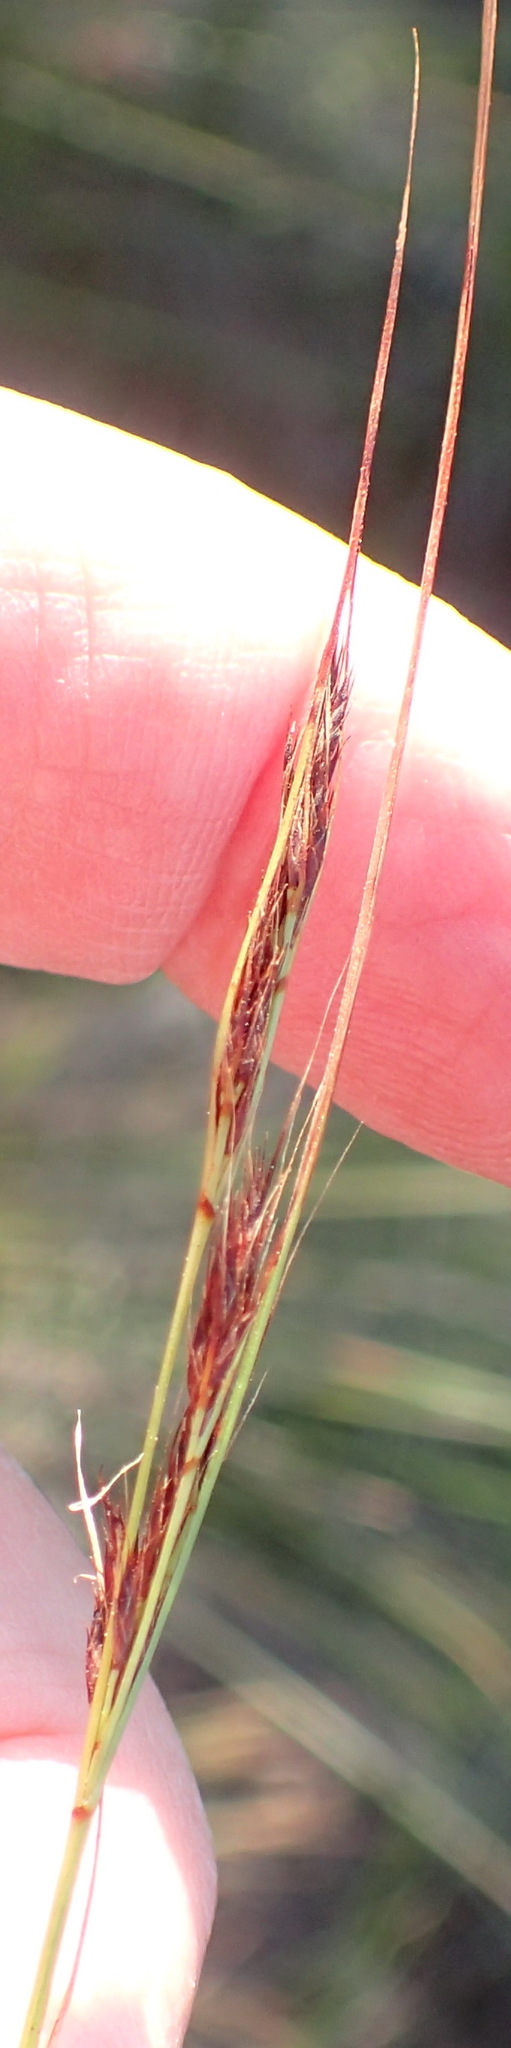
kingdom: Plantae
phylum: Tracheophyta
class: Liliopsida
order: Poales
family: Cyperaceae
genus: Schoenus
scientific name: Schoenus graciliculmis
